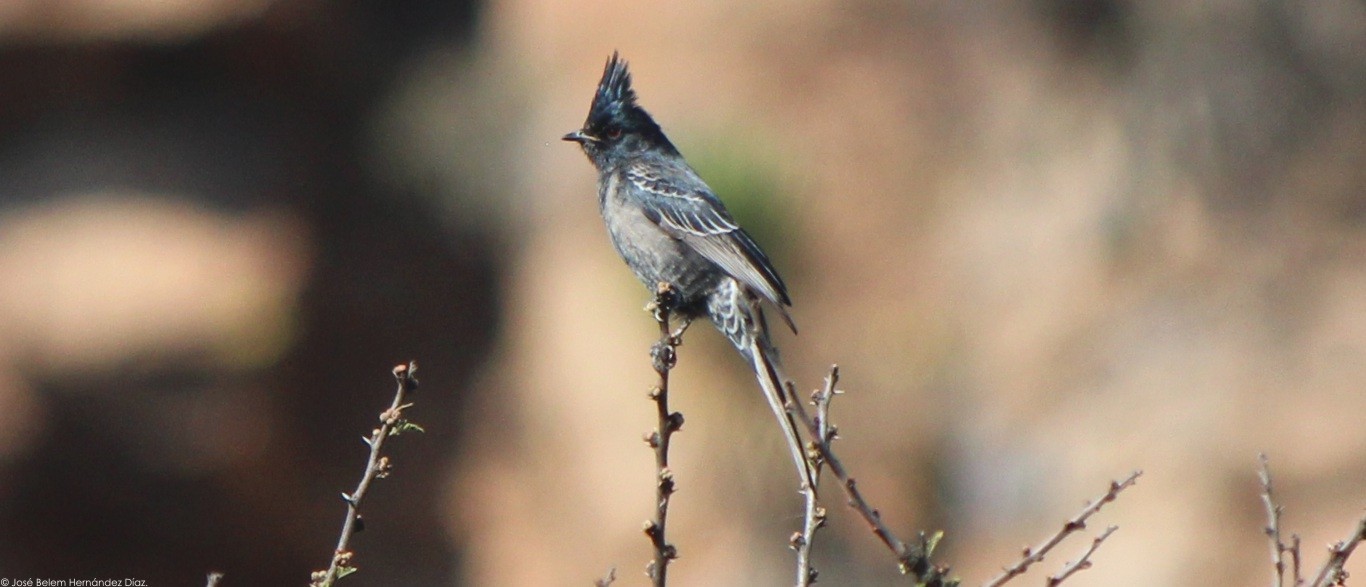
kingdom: Animalia
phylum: Chordata
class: Aves
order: Passeriformes
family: Ptilogonatidae
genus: Phainopepla
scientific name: Phainopepla nitens
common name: Phainopepla
